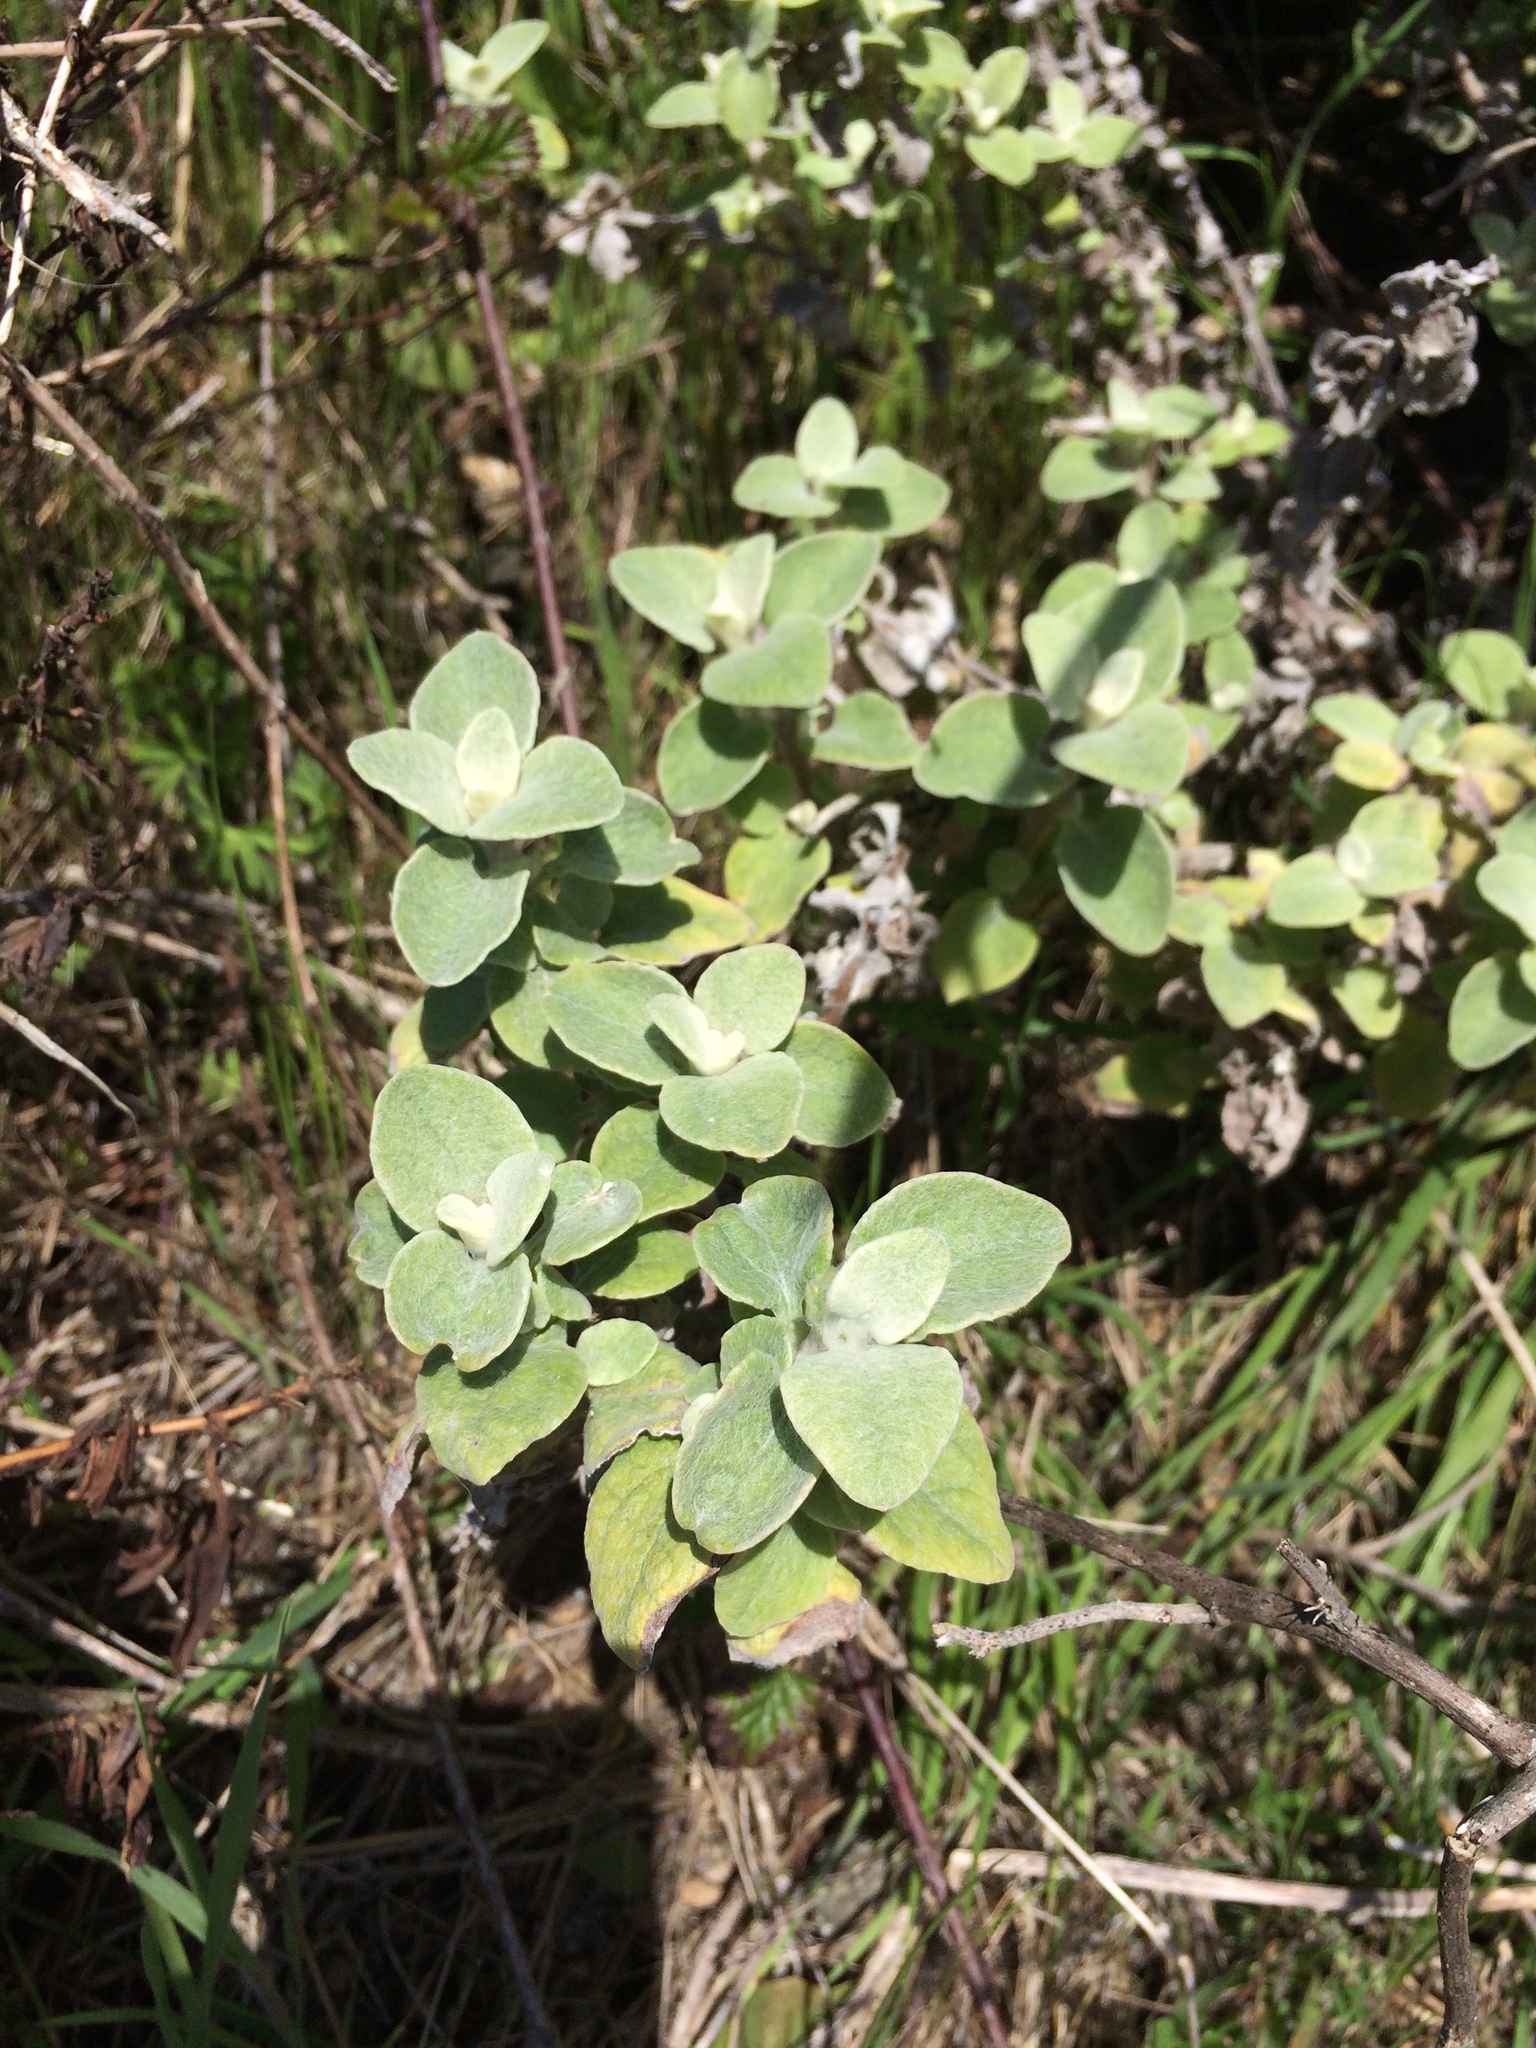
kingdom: Plantae
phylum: Tracheophyta
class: Magnoliopsida
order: Asterales
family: Asteraceae
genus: Helichrysum
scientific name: Helichrysum petiolare
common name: Licorice-plant
